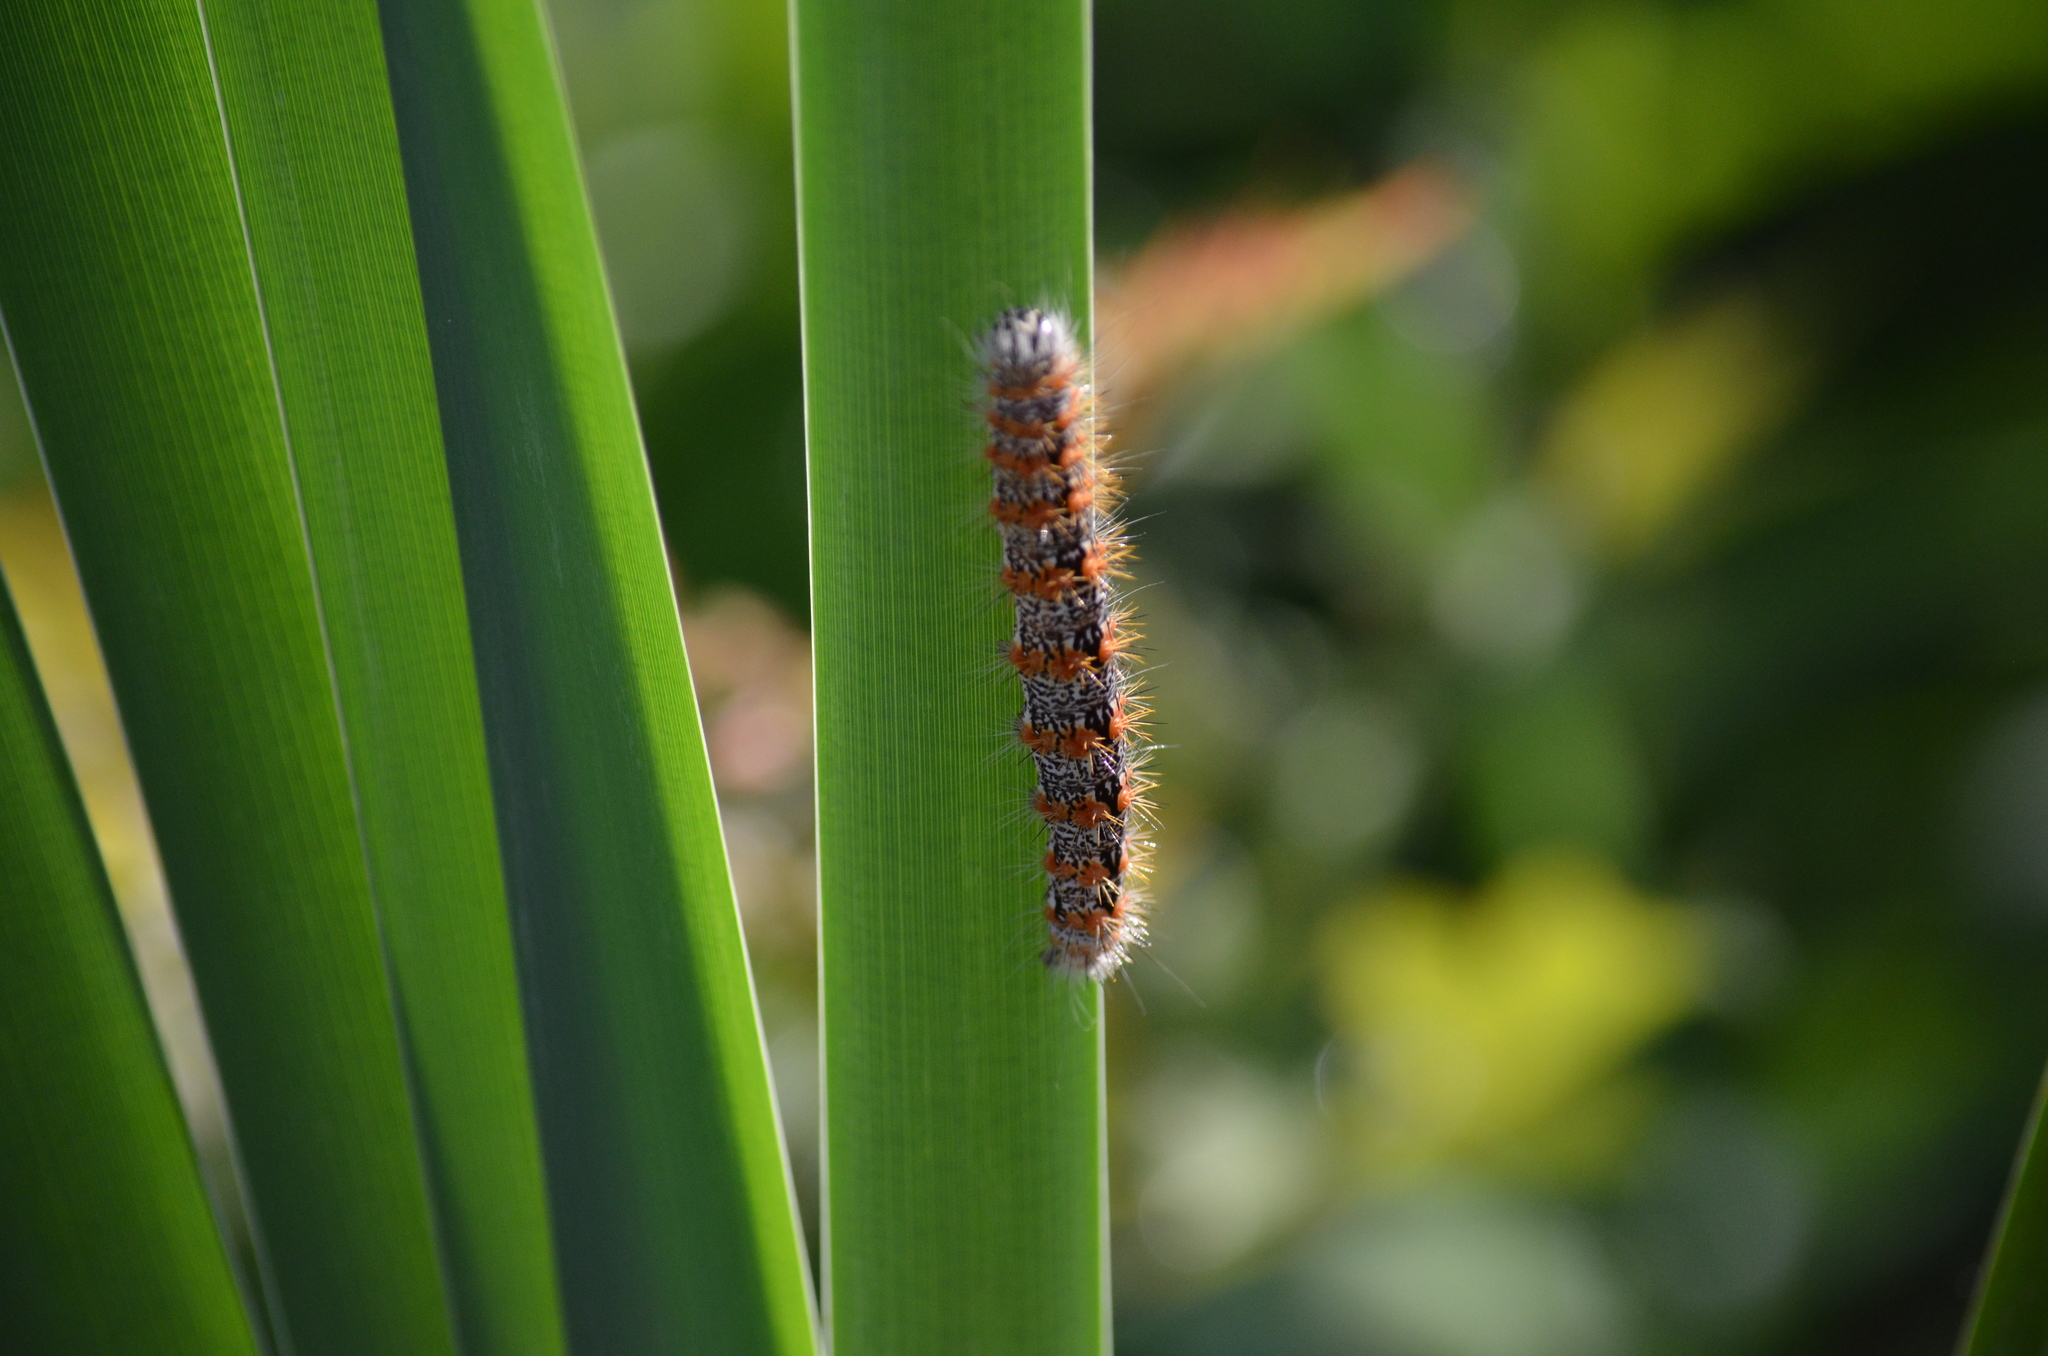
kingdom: Animalia
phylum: Arthropoda
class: Insecta
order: Lepidoptera
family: Noctuidae
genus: Acronicta
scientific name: Acronicta insularis
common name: Henry's marsh moth
